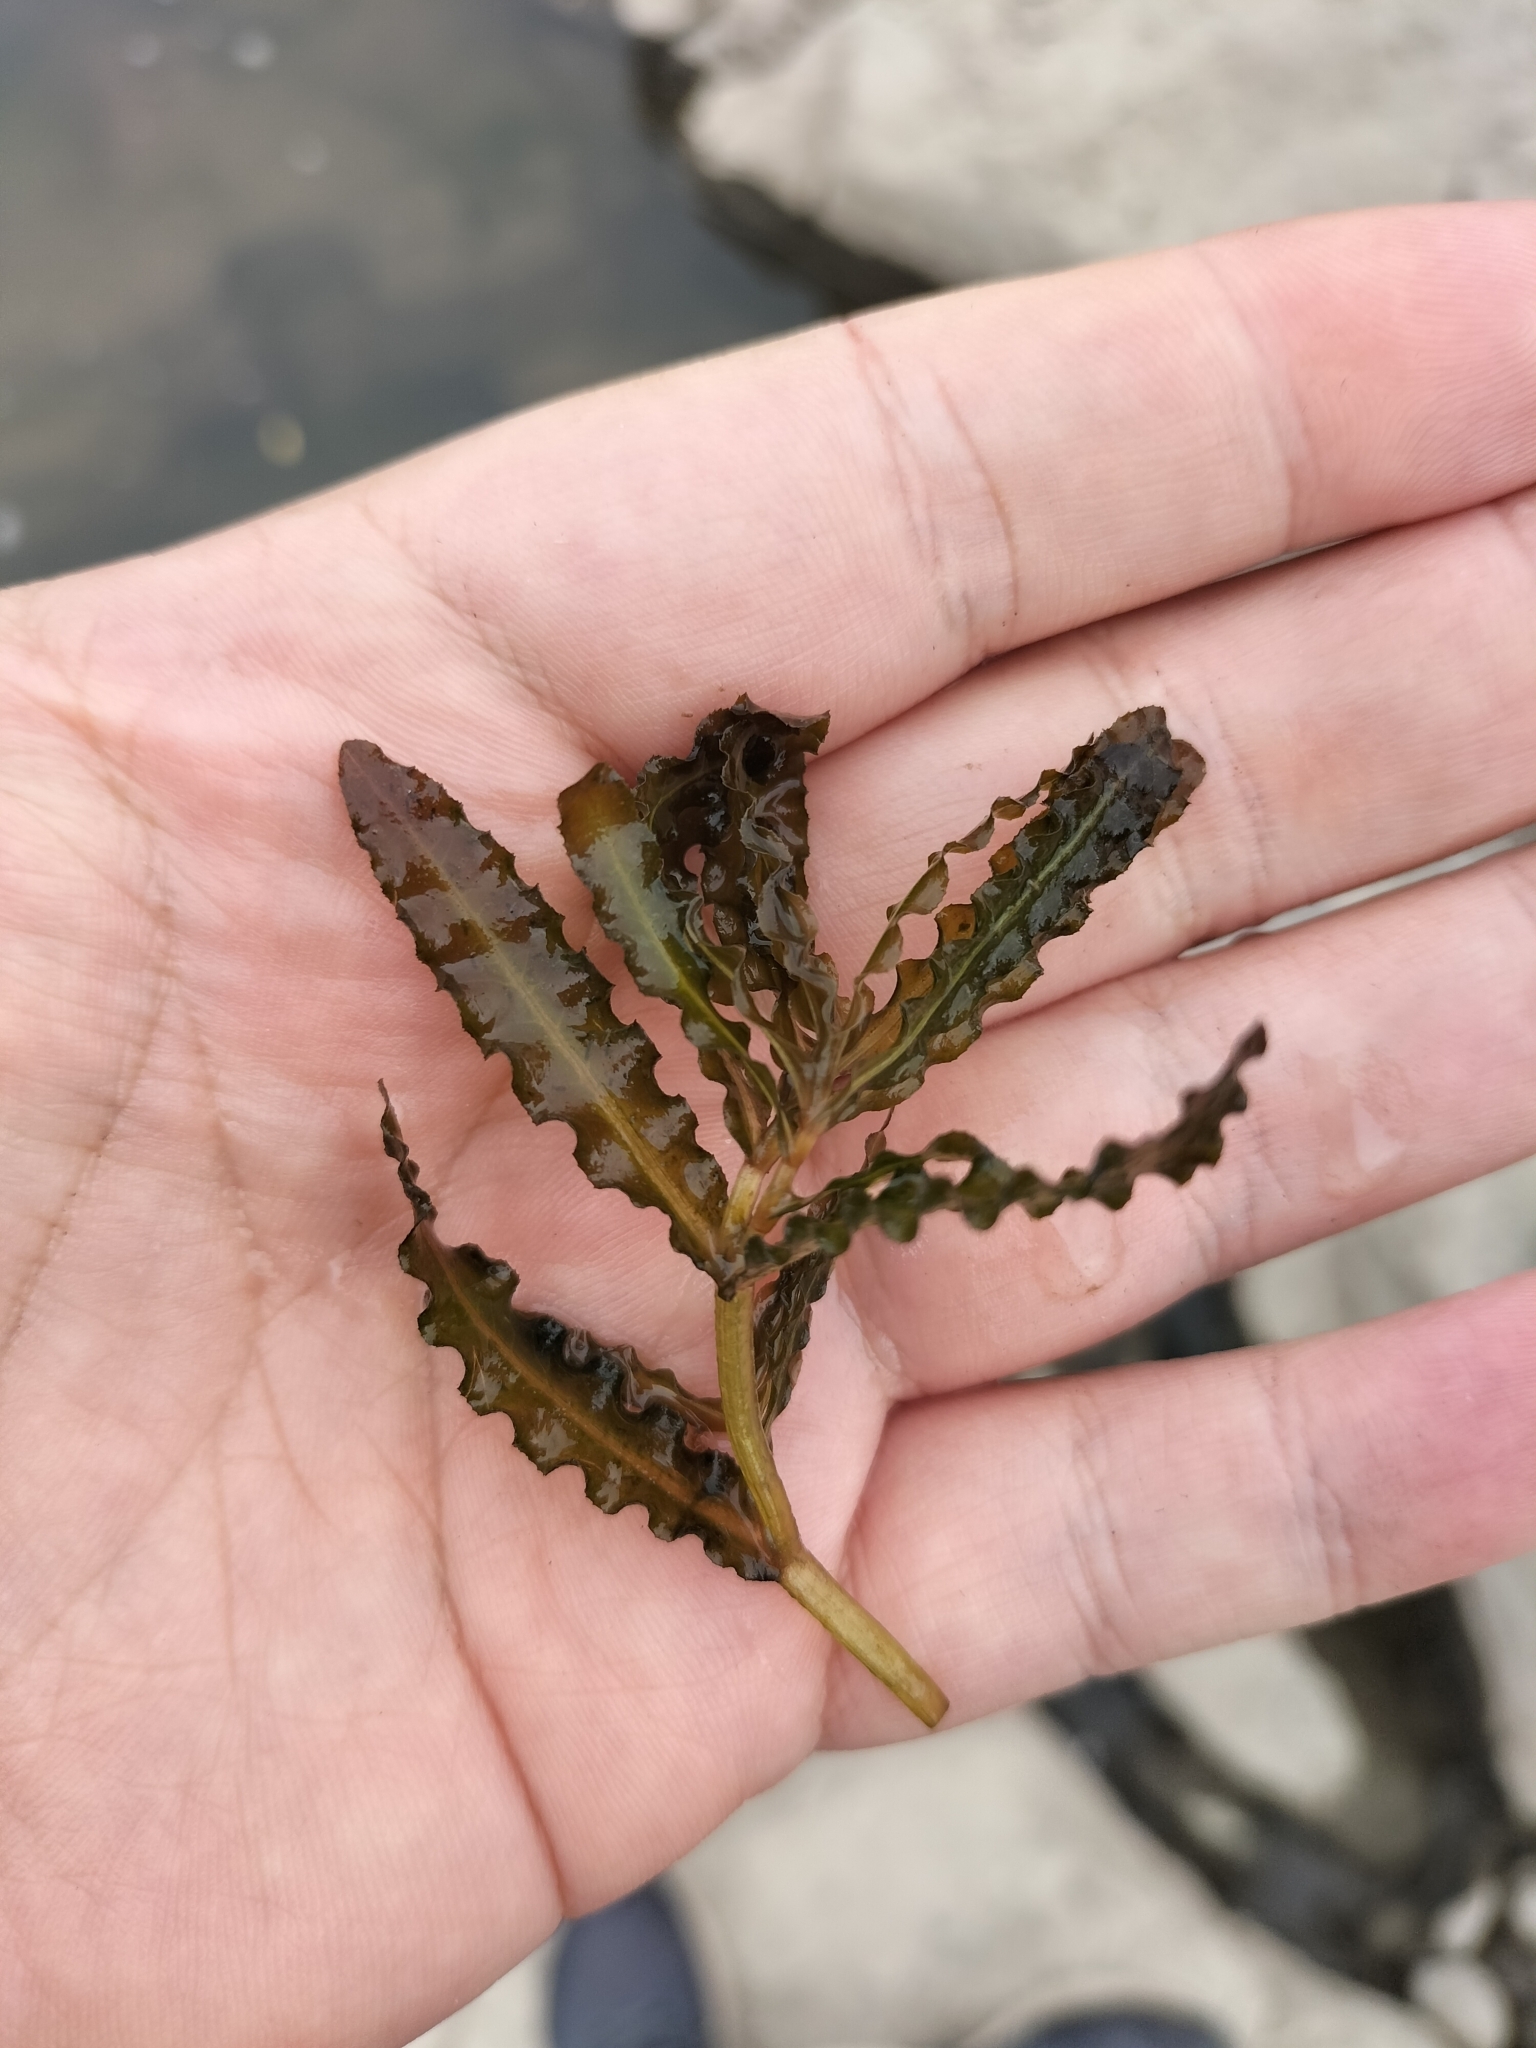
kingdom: Plantae
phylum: Tracheophyta
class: Liliopsida
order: Alismatales
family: Potamogetonaceae
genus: Potamogeton
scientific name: Potamogeton crispus
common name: Curled pondweed
